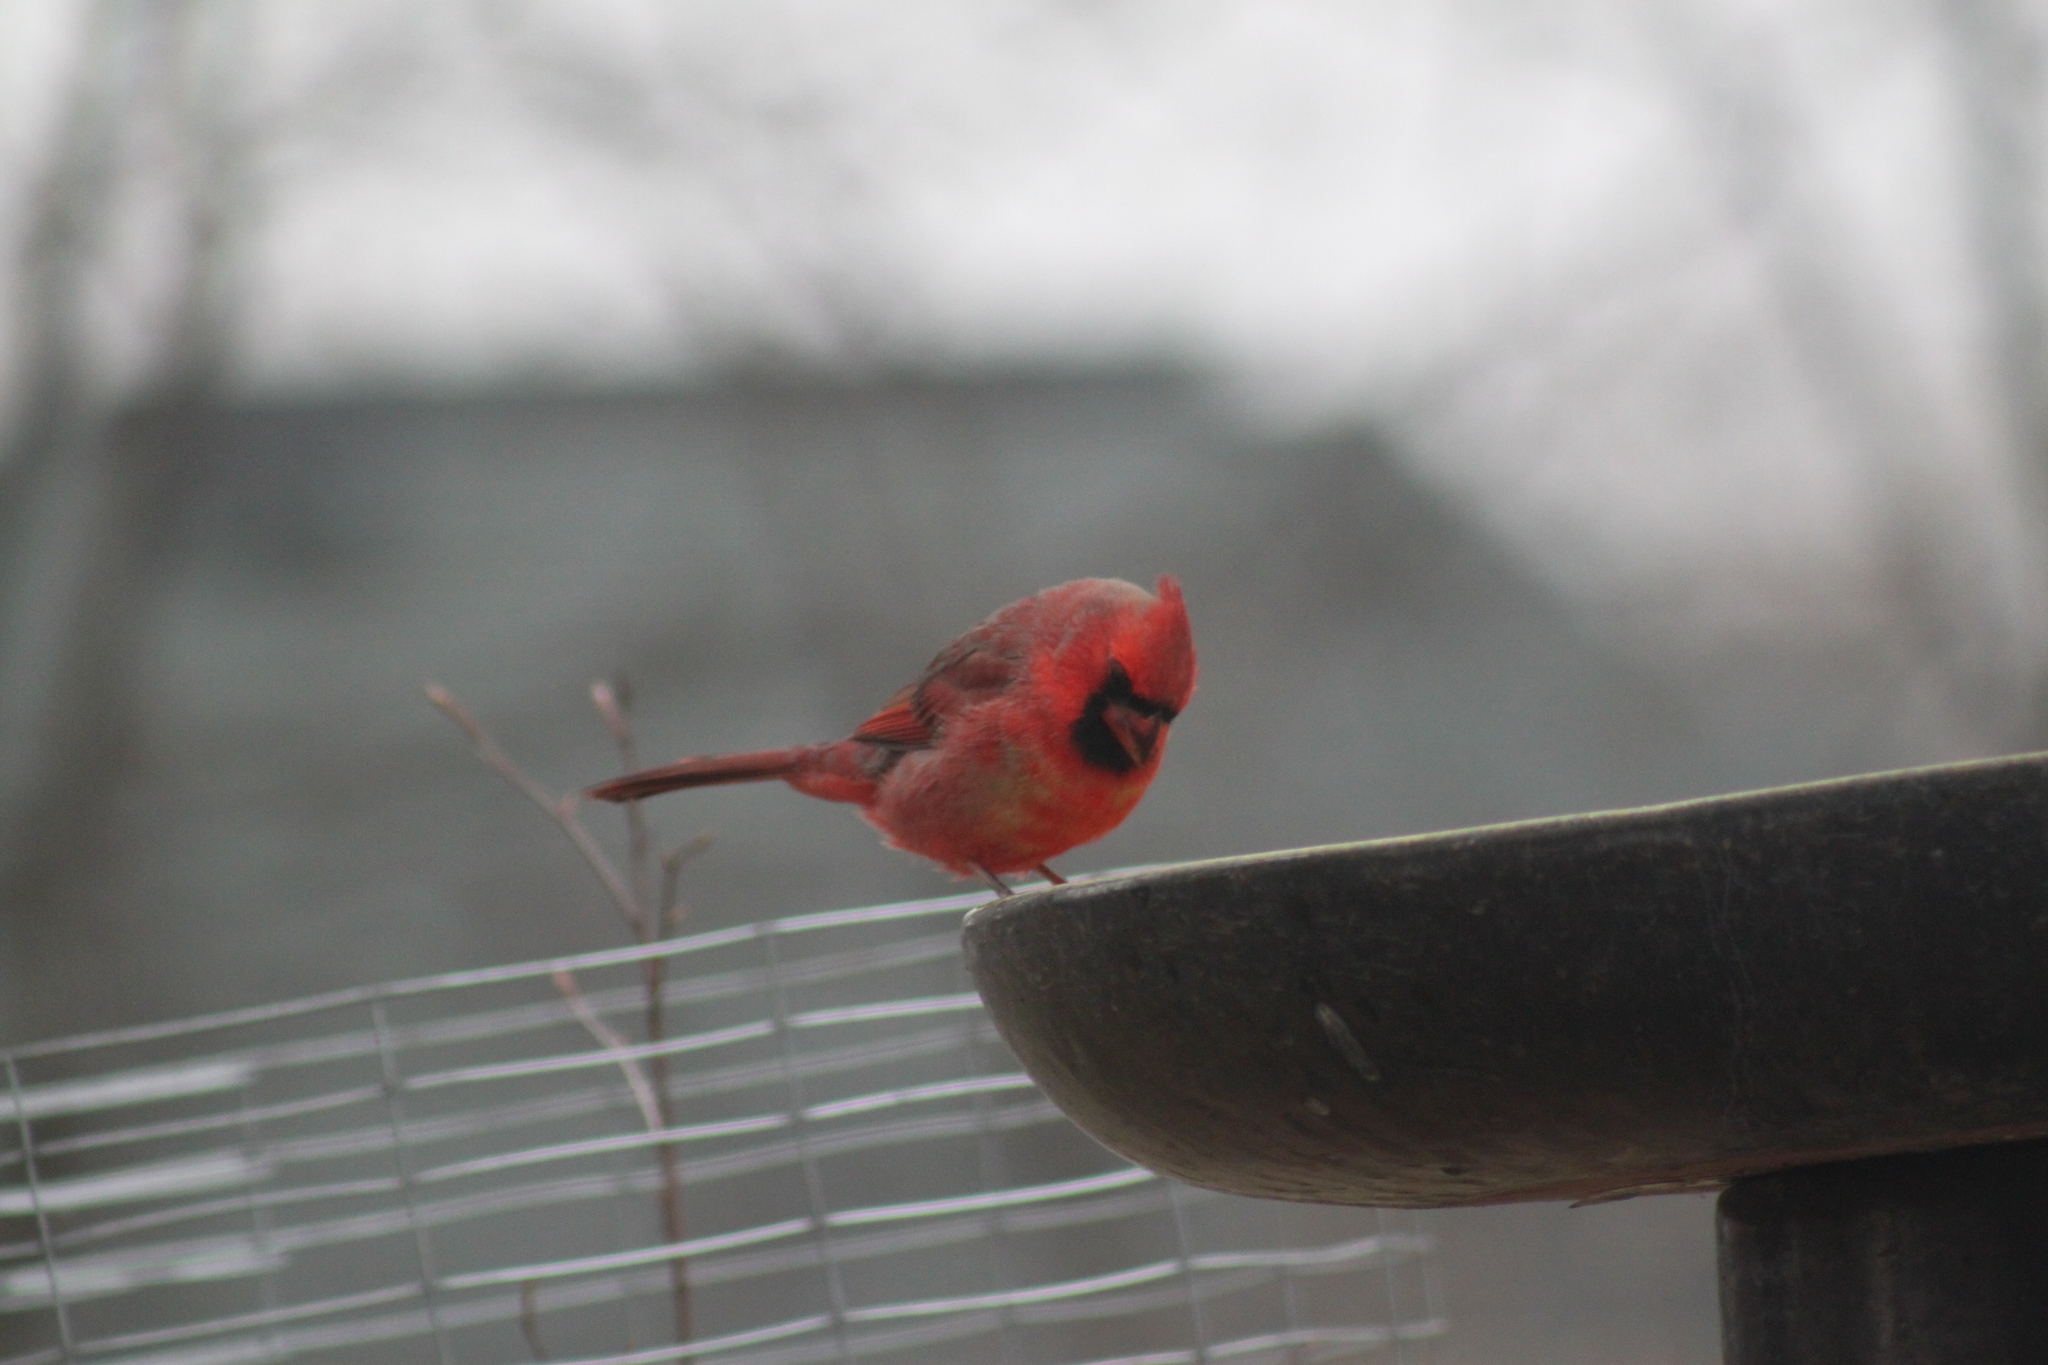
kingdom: Animalia
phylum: Chordata
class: Aves
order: Passeriformes
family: Cardinalidae
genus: Cardinalis
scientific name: Cardinalis cardinalis
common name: Northern cardinal
